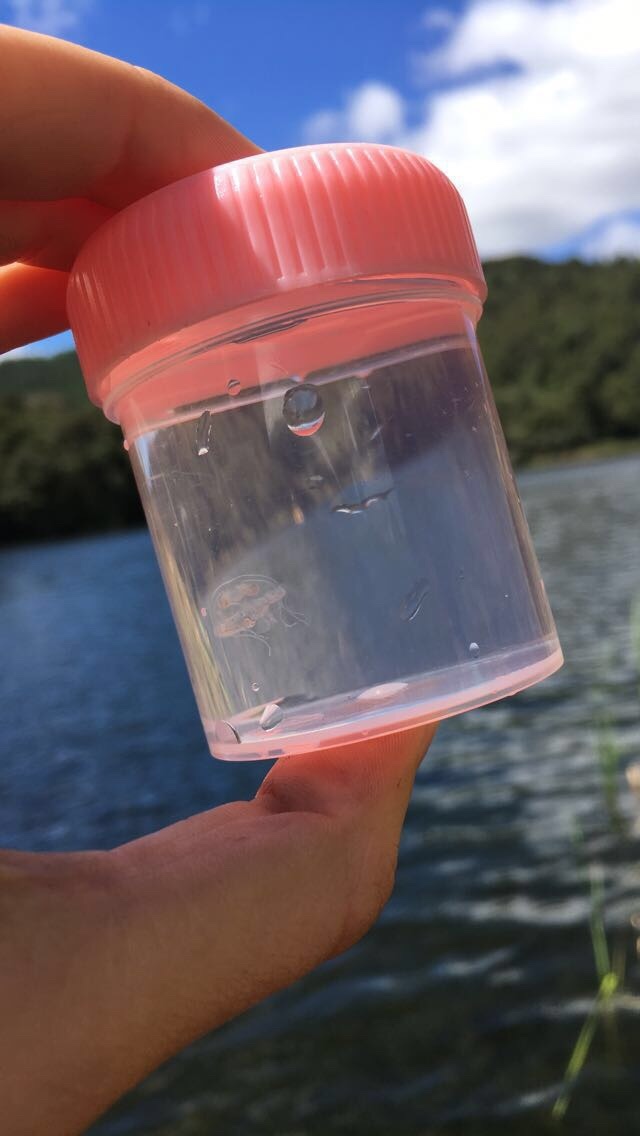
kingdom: Animalia
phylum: Cnidaria
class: Hydrozoa
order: Limnomedusae
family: Olindiidae
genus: Craspedacusta
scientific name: Craspedacusta sowerbii
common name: Freshwater jellyfish
